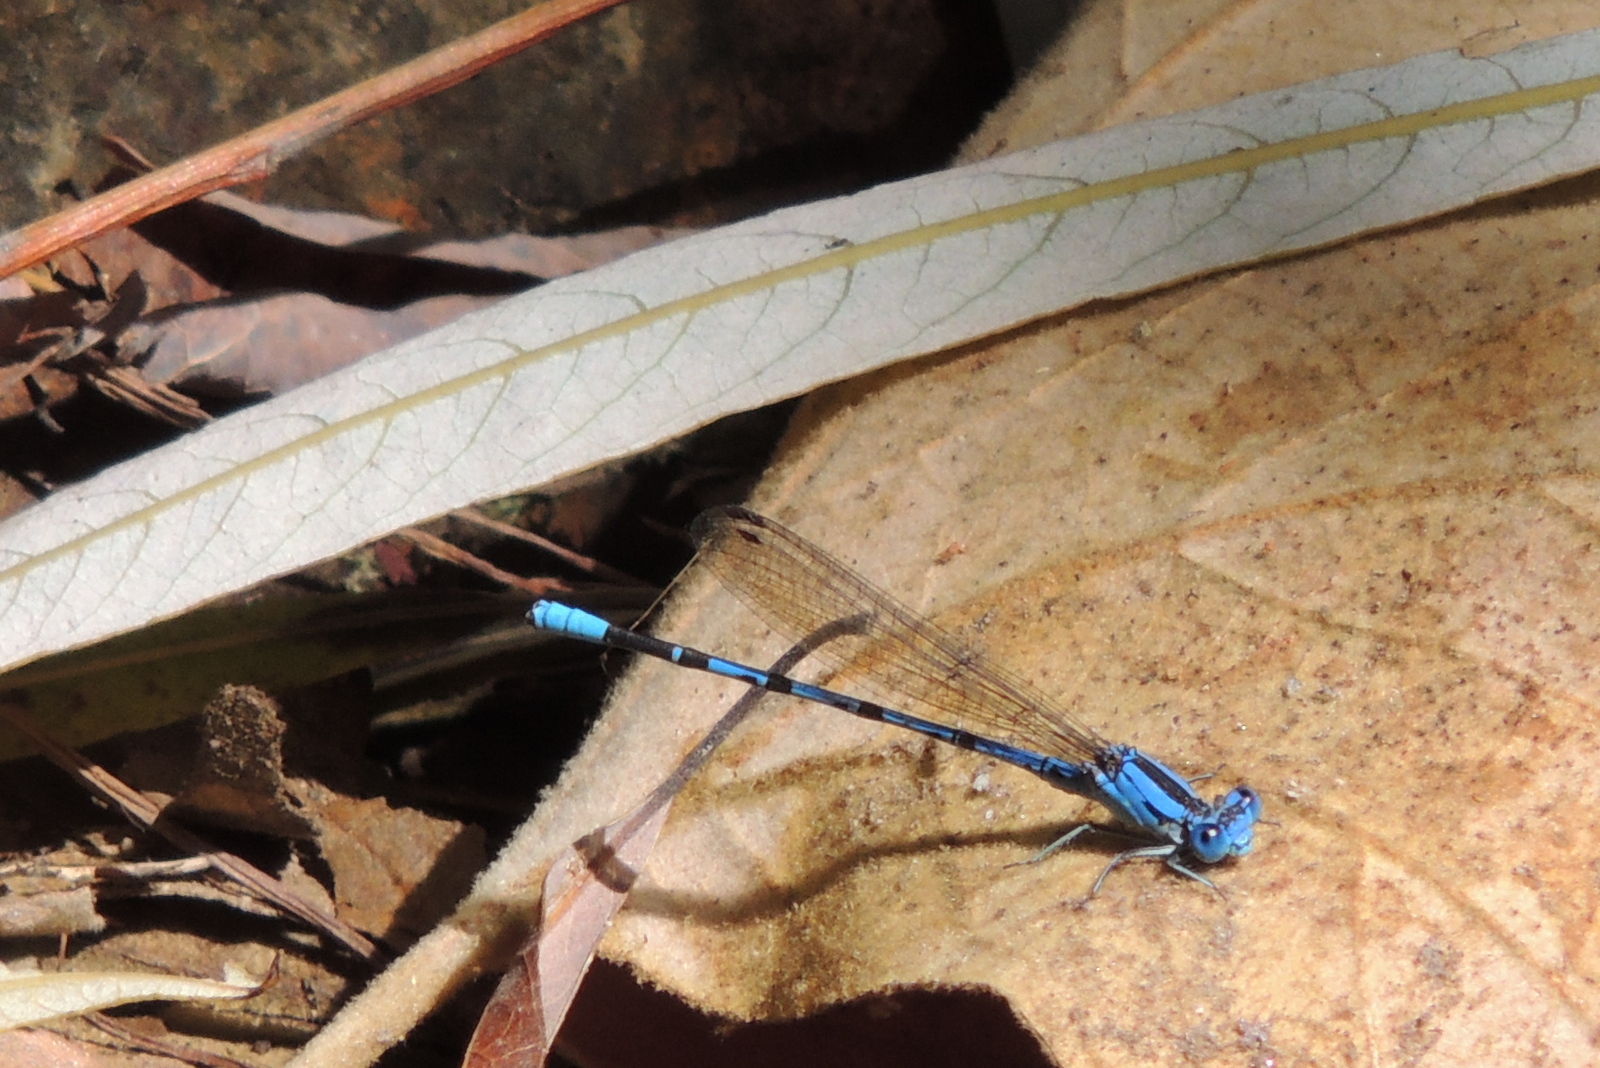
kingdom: Animalia
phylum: Arthropoda
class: Insecta
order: Odonata
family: Coenagrionidae
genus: Argia
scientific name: Argia vivida
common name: Vivid dancer
